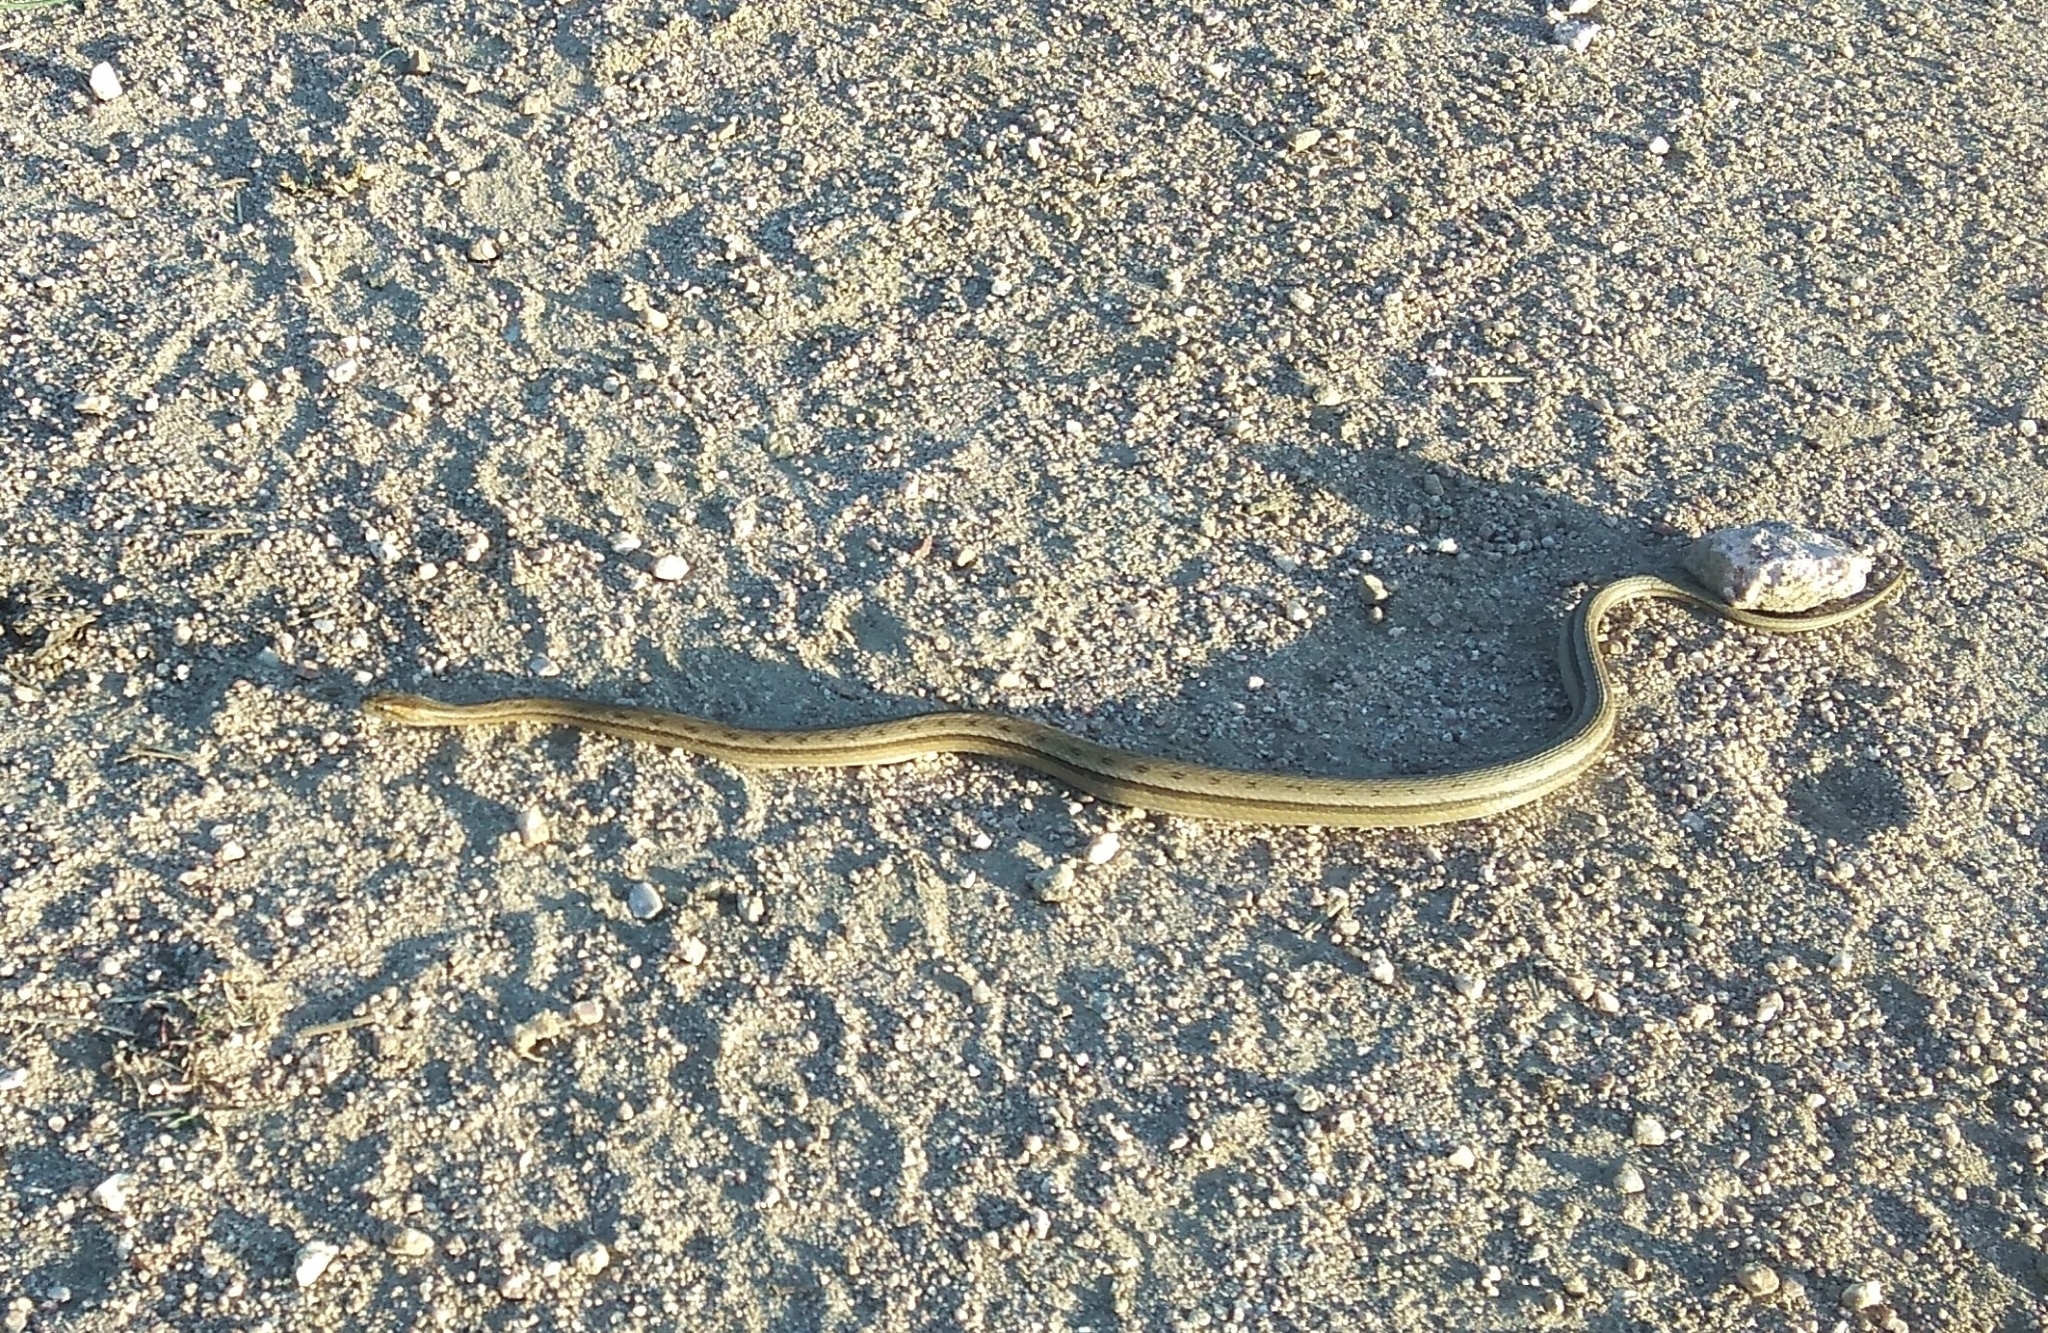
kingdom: Animalia
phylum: Chordata
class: Squamata
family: Colubridae
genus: Dryophylax
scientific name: Dryophylax
